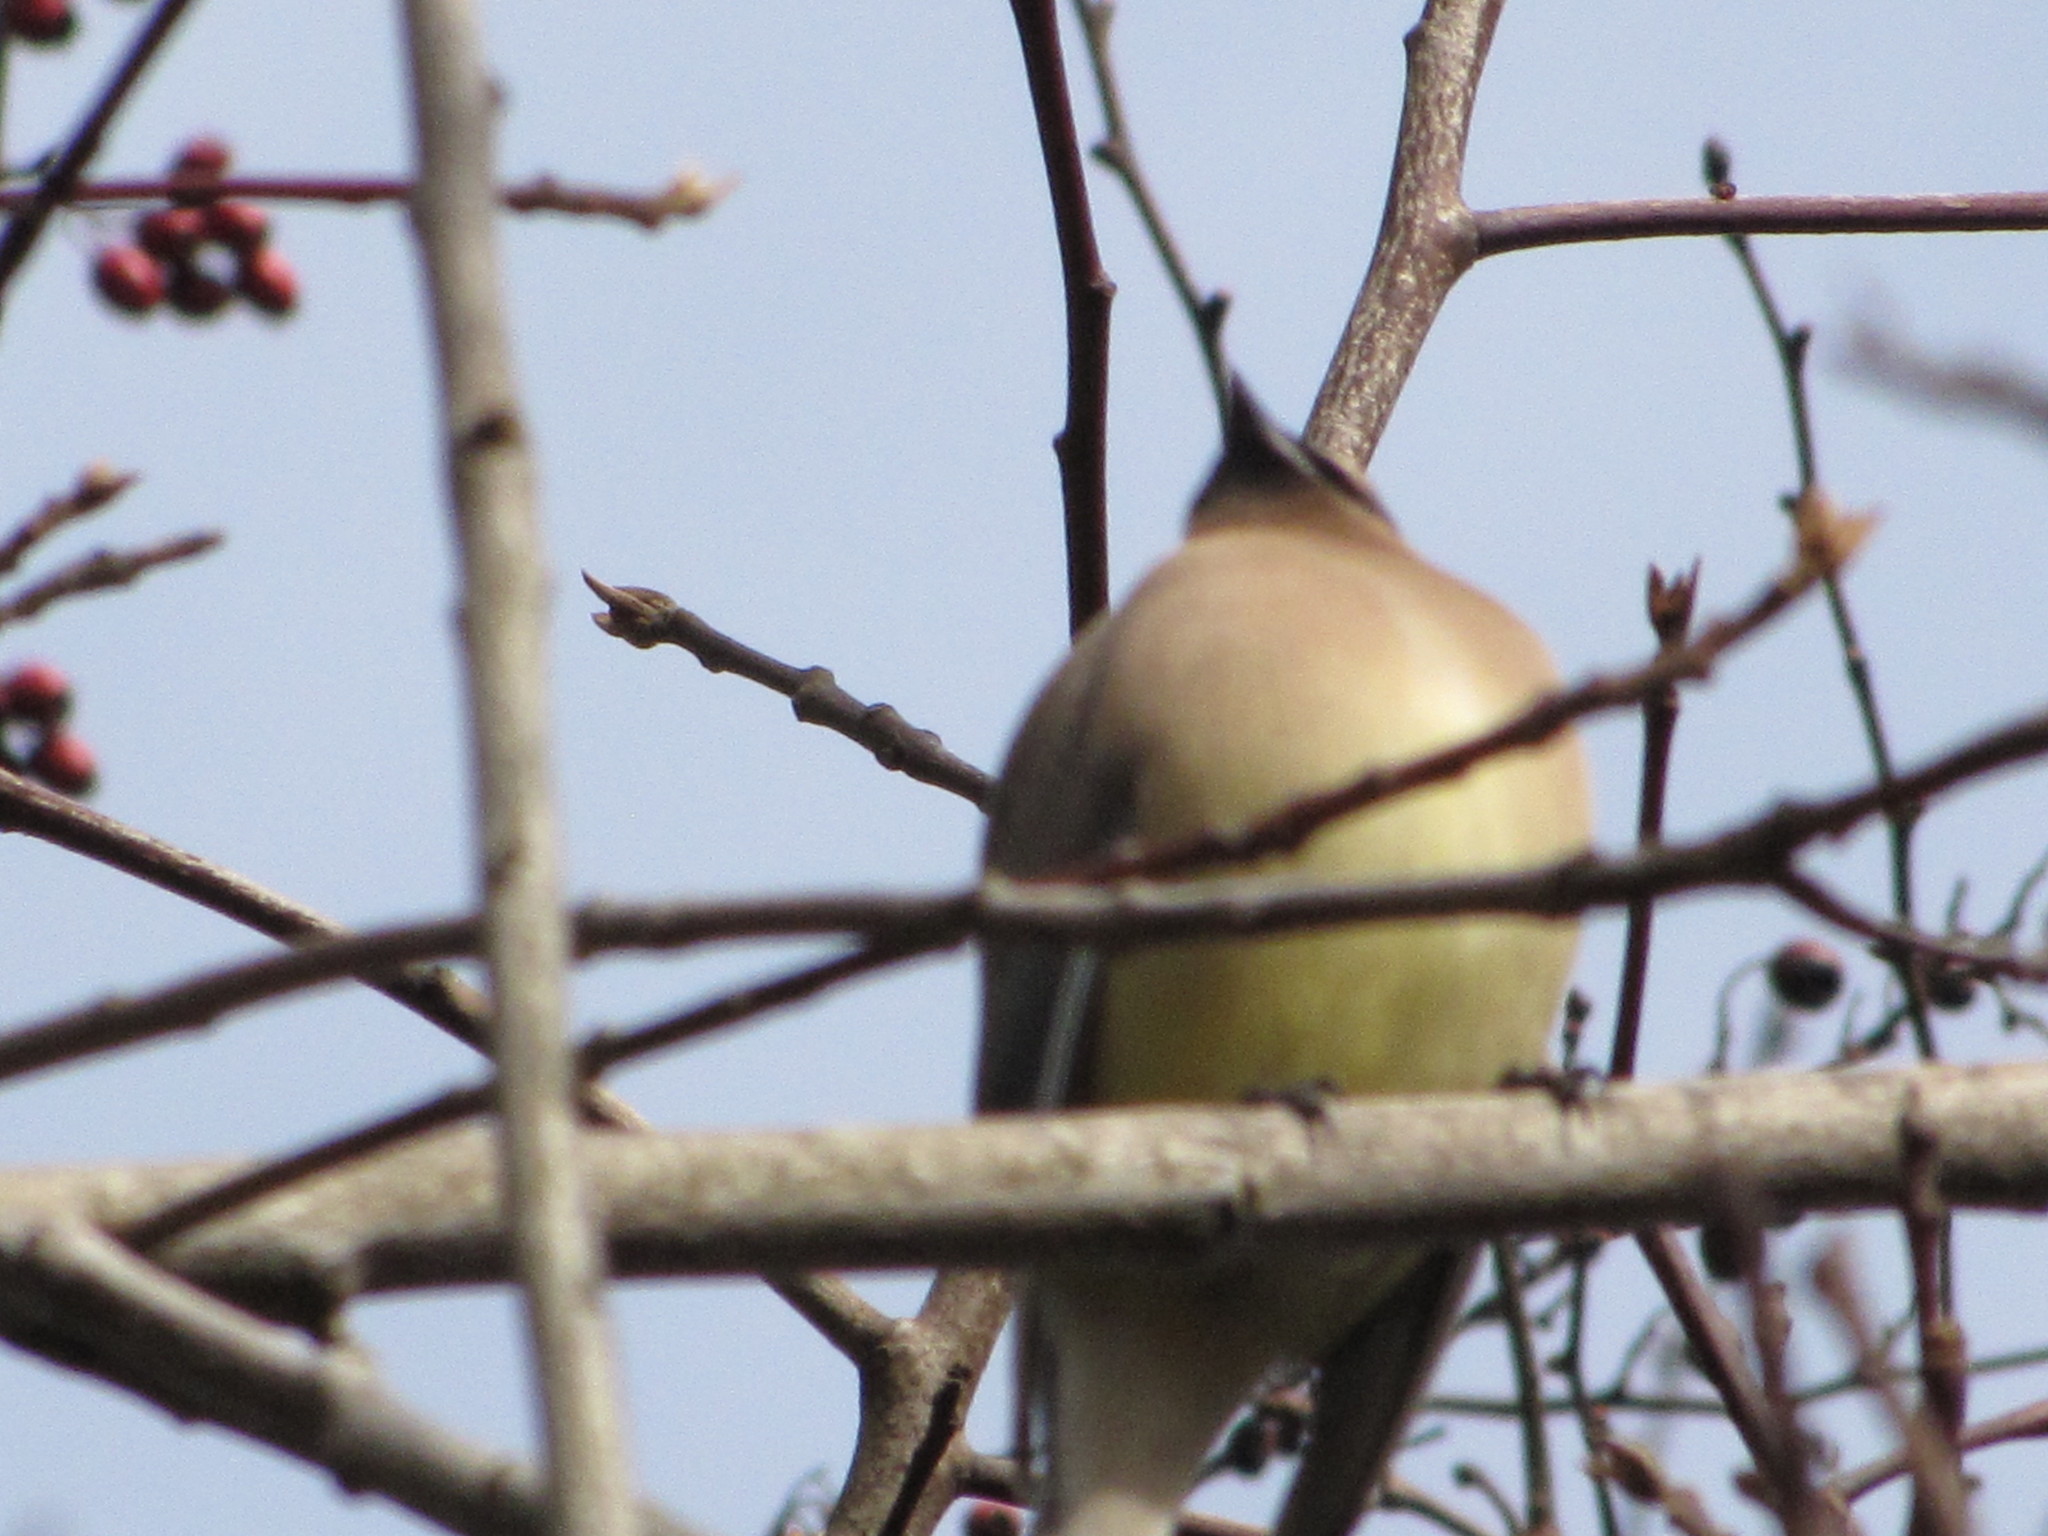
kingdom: Animalia
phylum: Chordata
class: Aves
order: Passeriformes
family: Bombycillidae
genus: Bombycilla
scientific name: Bombycilla cedrorum
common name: Cedar waxwing
